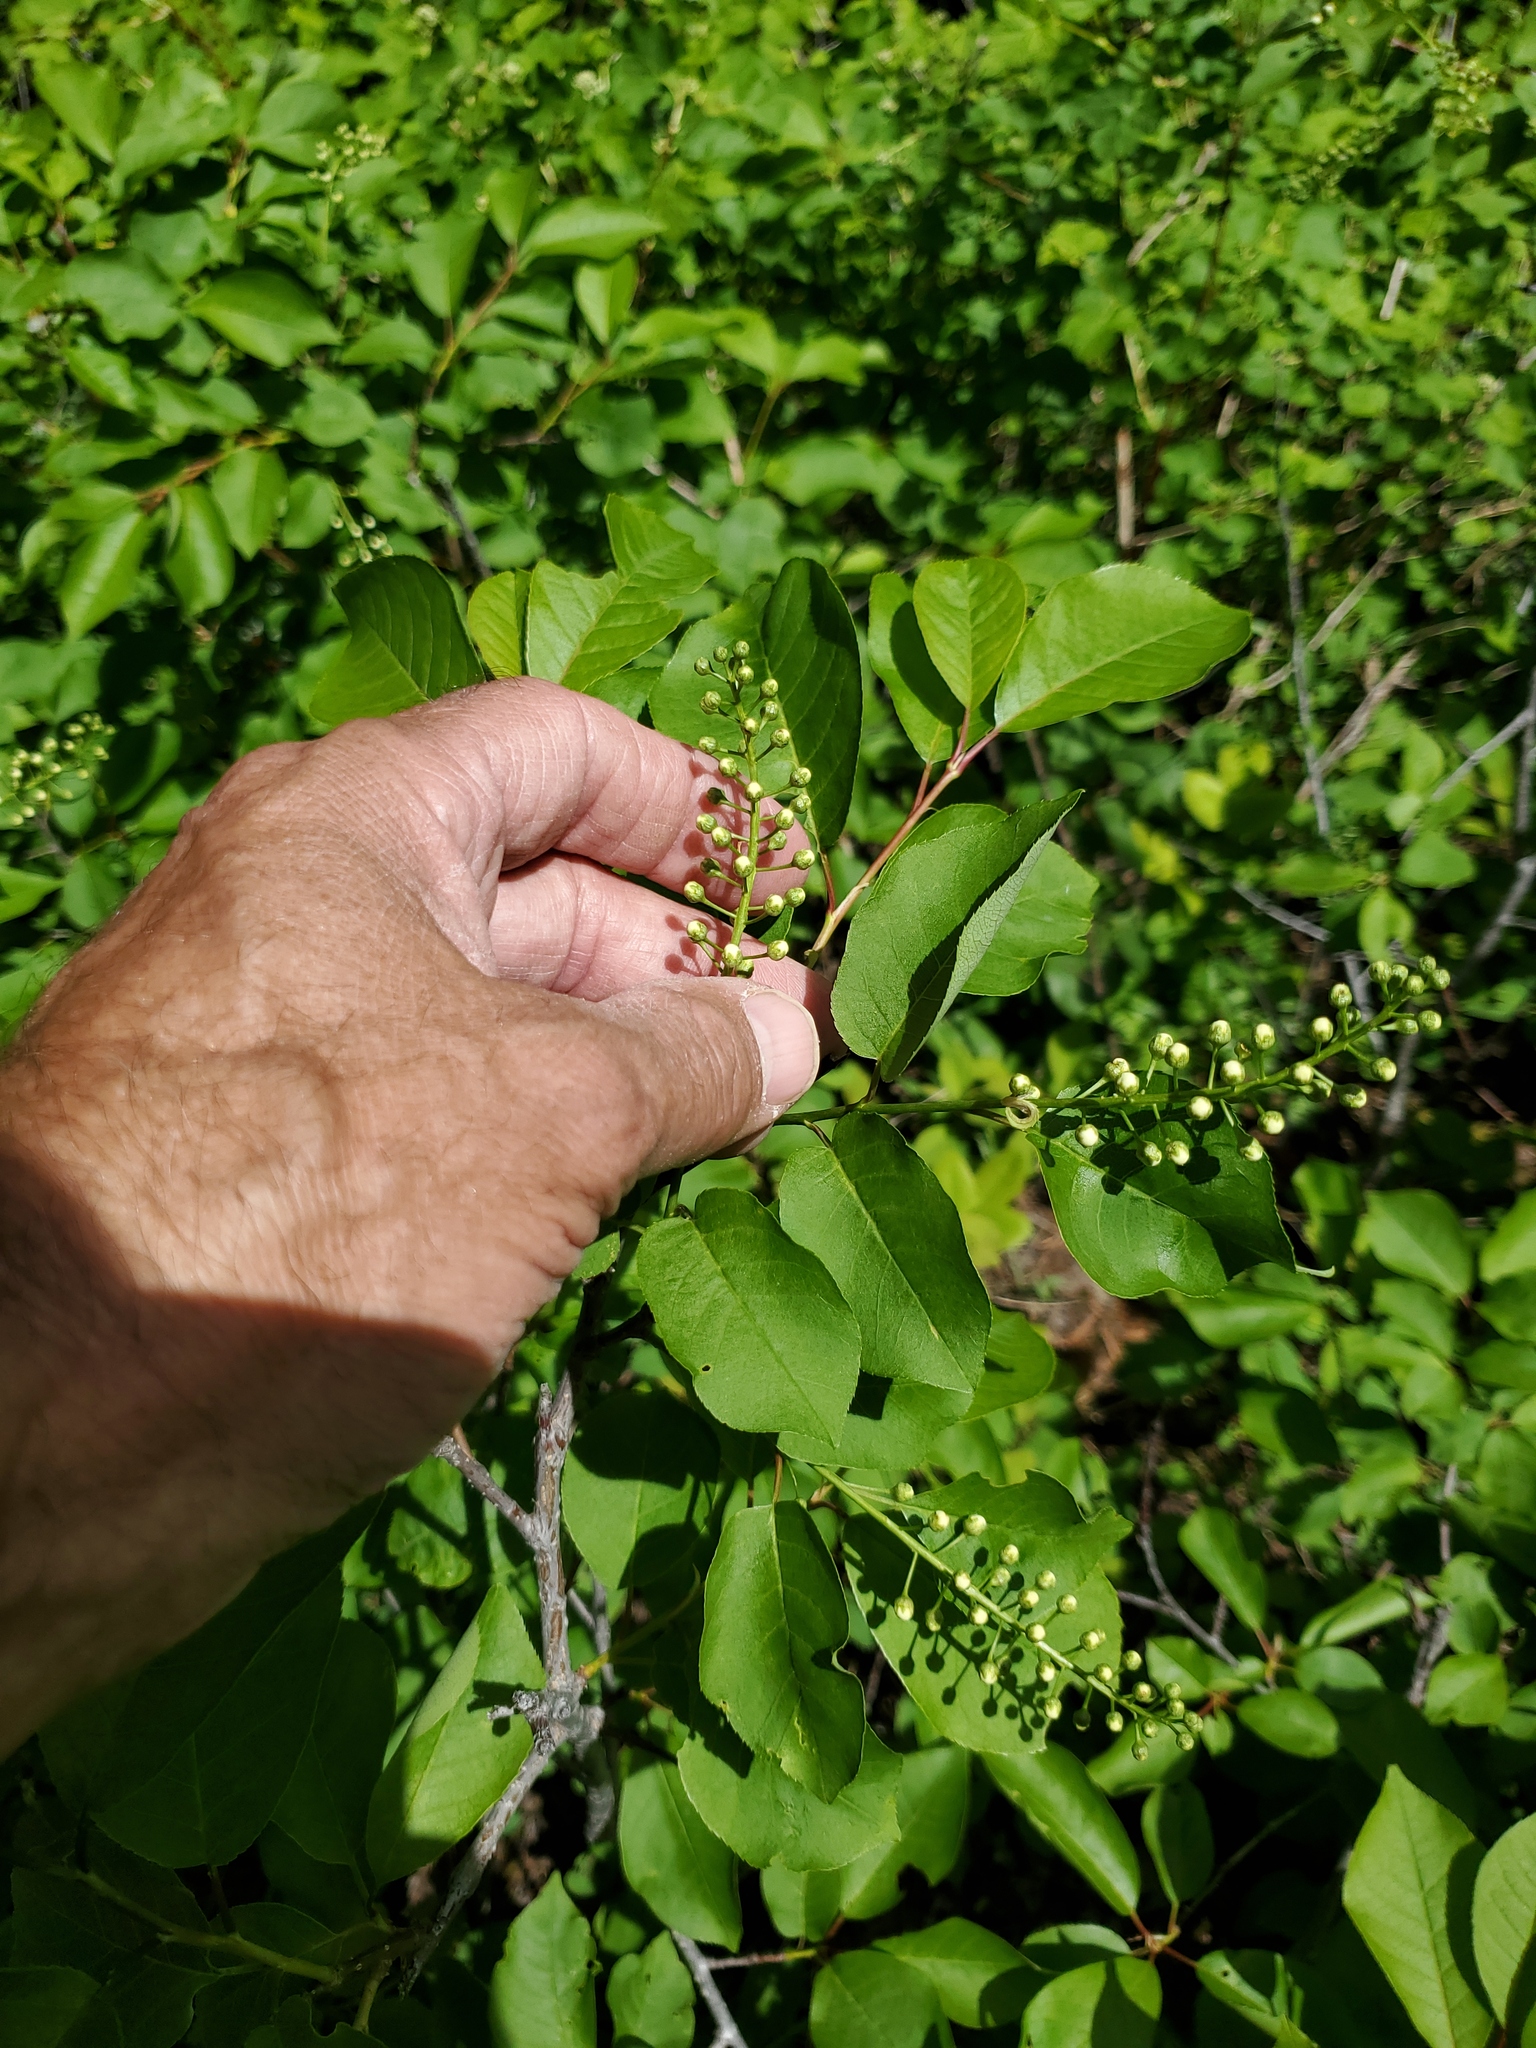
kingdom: Plantae
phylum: Tracheophyta
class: Magnoliopsida
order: Rosales
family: Rosaceae
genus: Prunus
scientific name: Prunus virginiana
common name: Chokecherry
